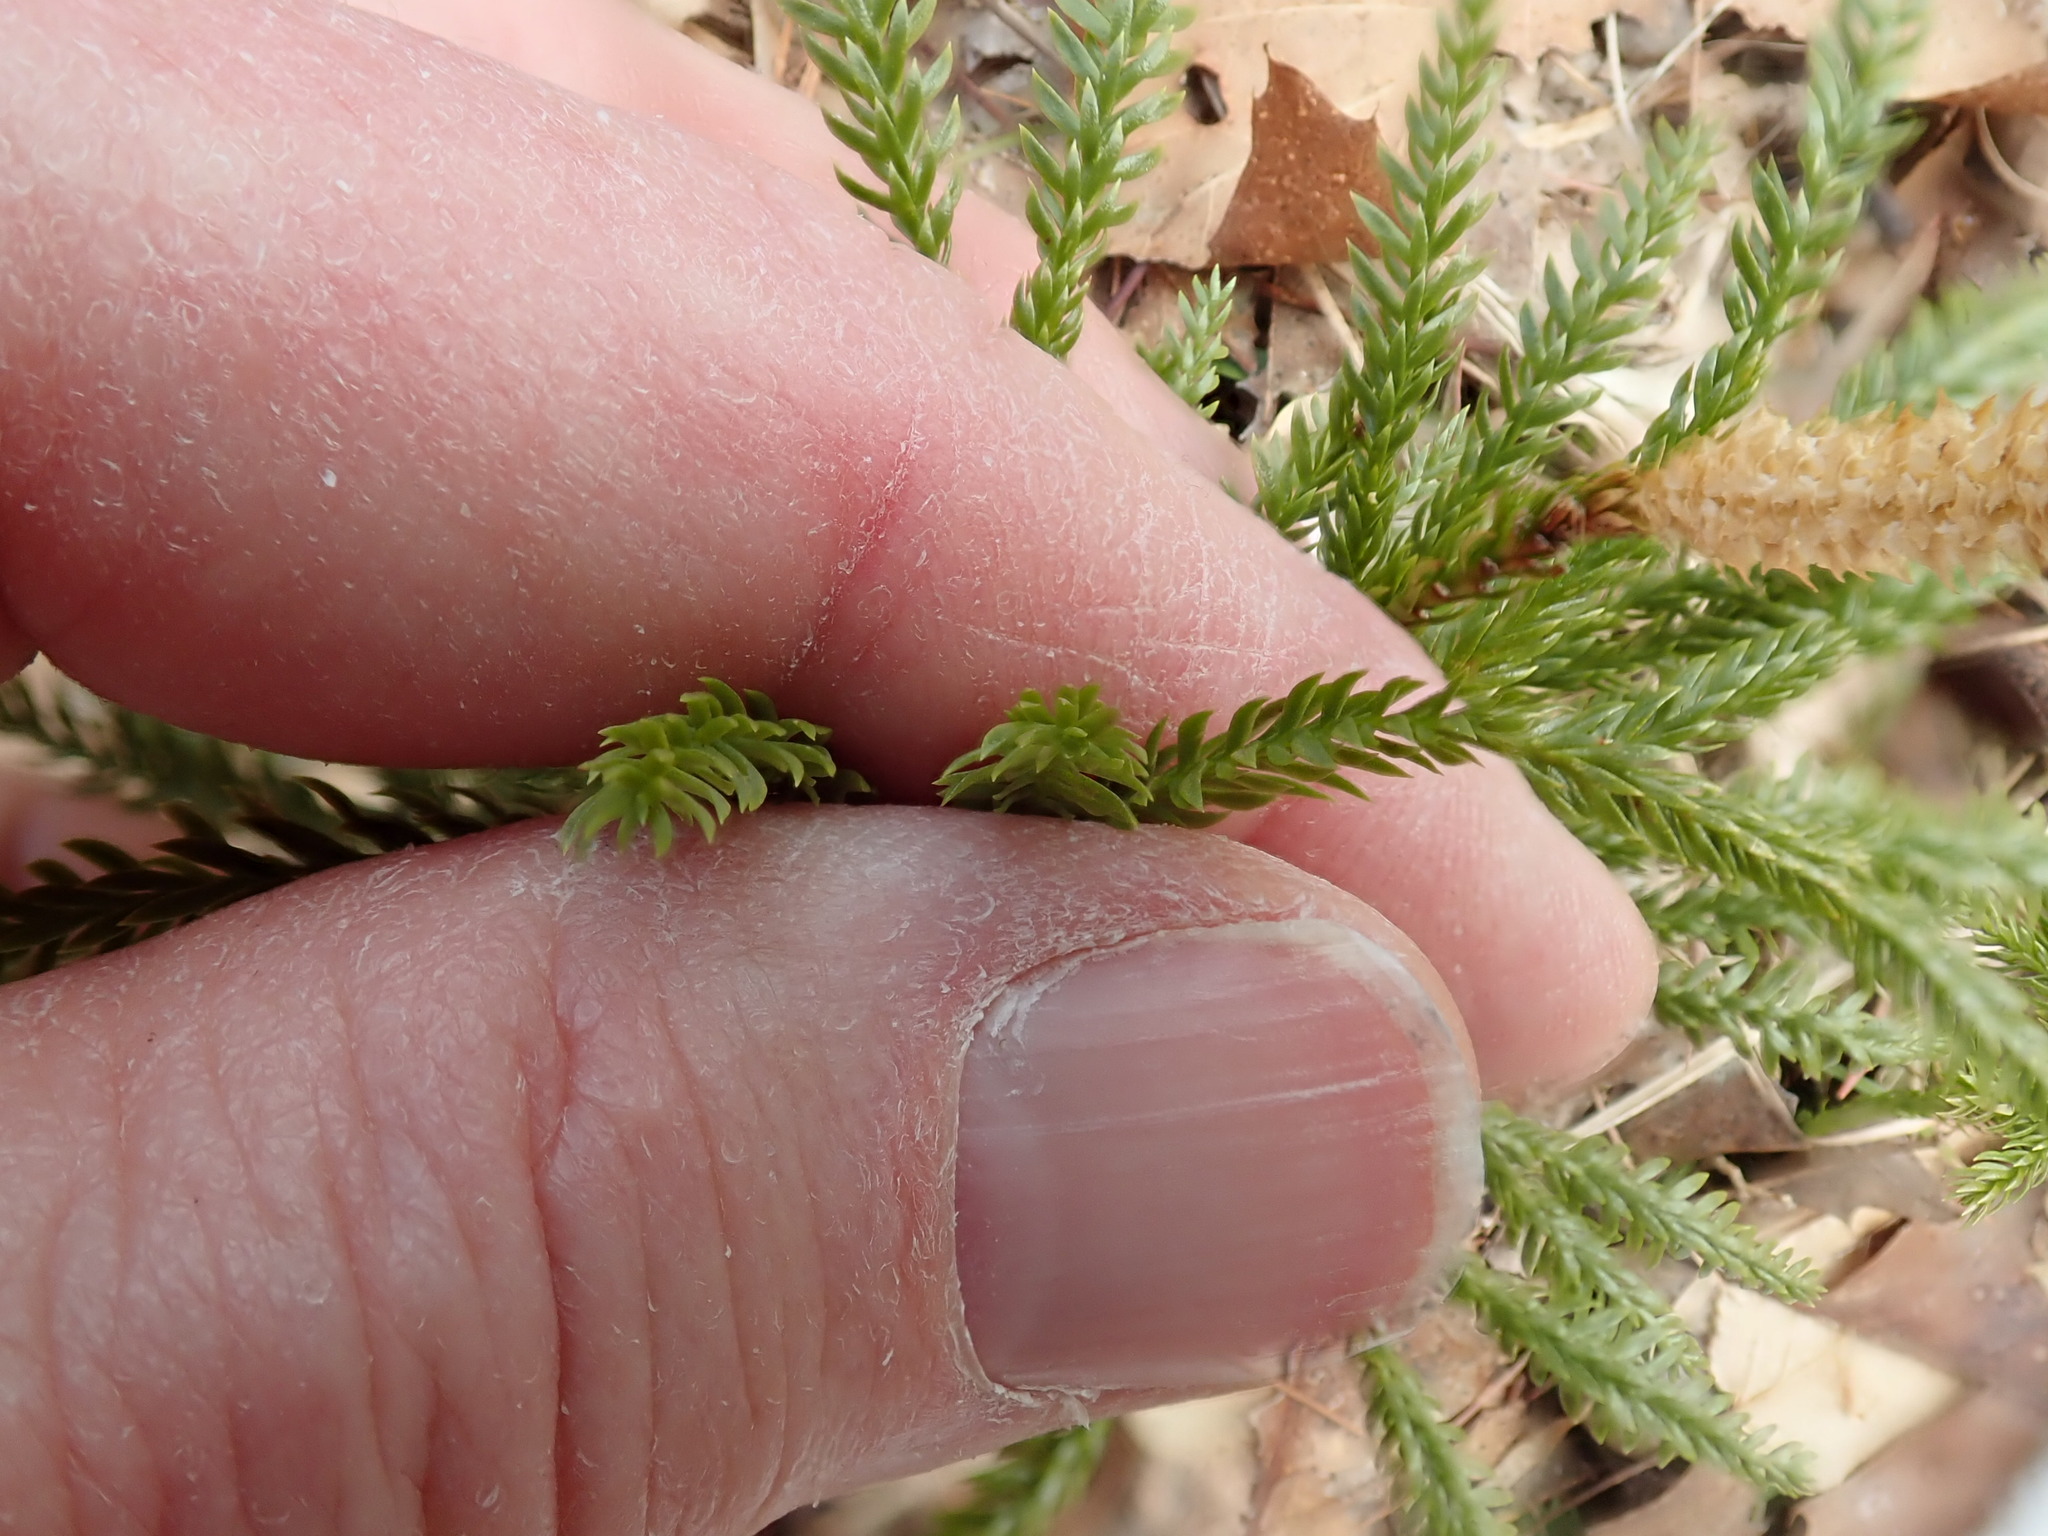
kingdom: Plantae
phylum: Tracheophyta
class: Lycopodiopsida
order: Lycopodiales
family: Lycopodiaceae
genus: Dendrolycopodium
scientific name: Dendrolycopodium obscurum
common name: Common ground-pine
